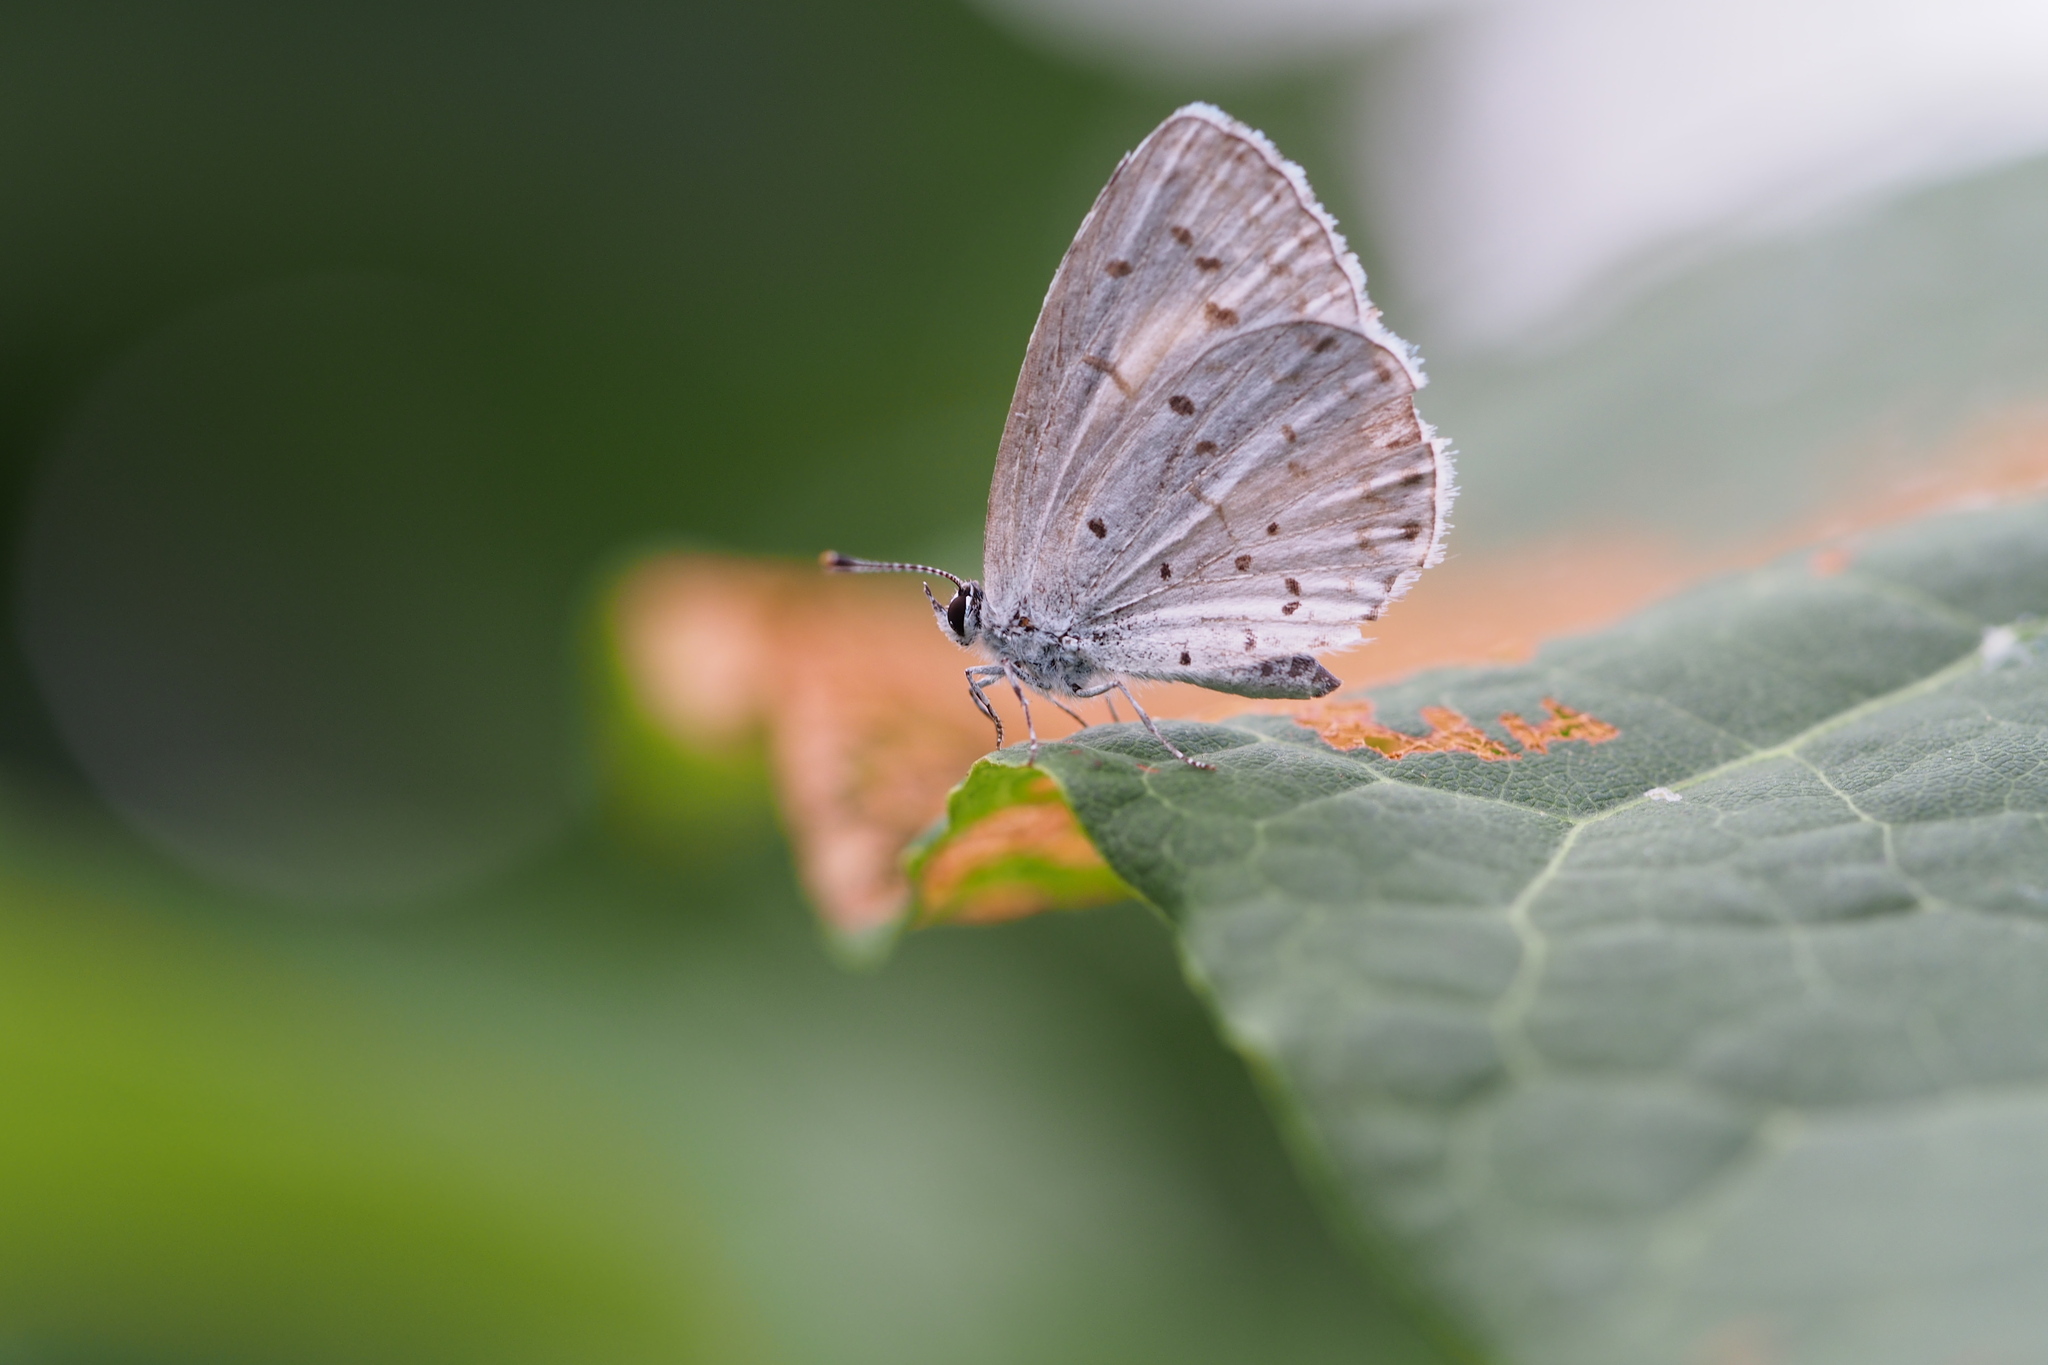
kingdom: Animalia
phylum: Arthropoda
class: Insecta
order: Lepidoptera
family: Lycaenidae
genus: Celastrina
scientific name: Celastrina argiolus
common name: Holly blue
